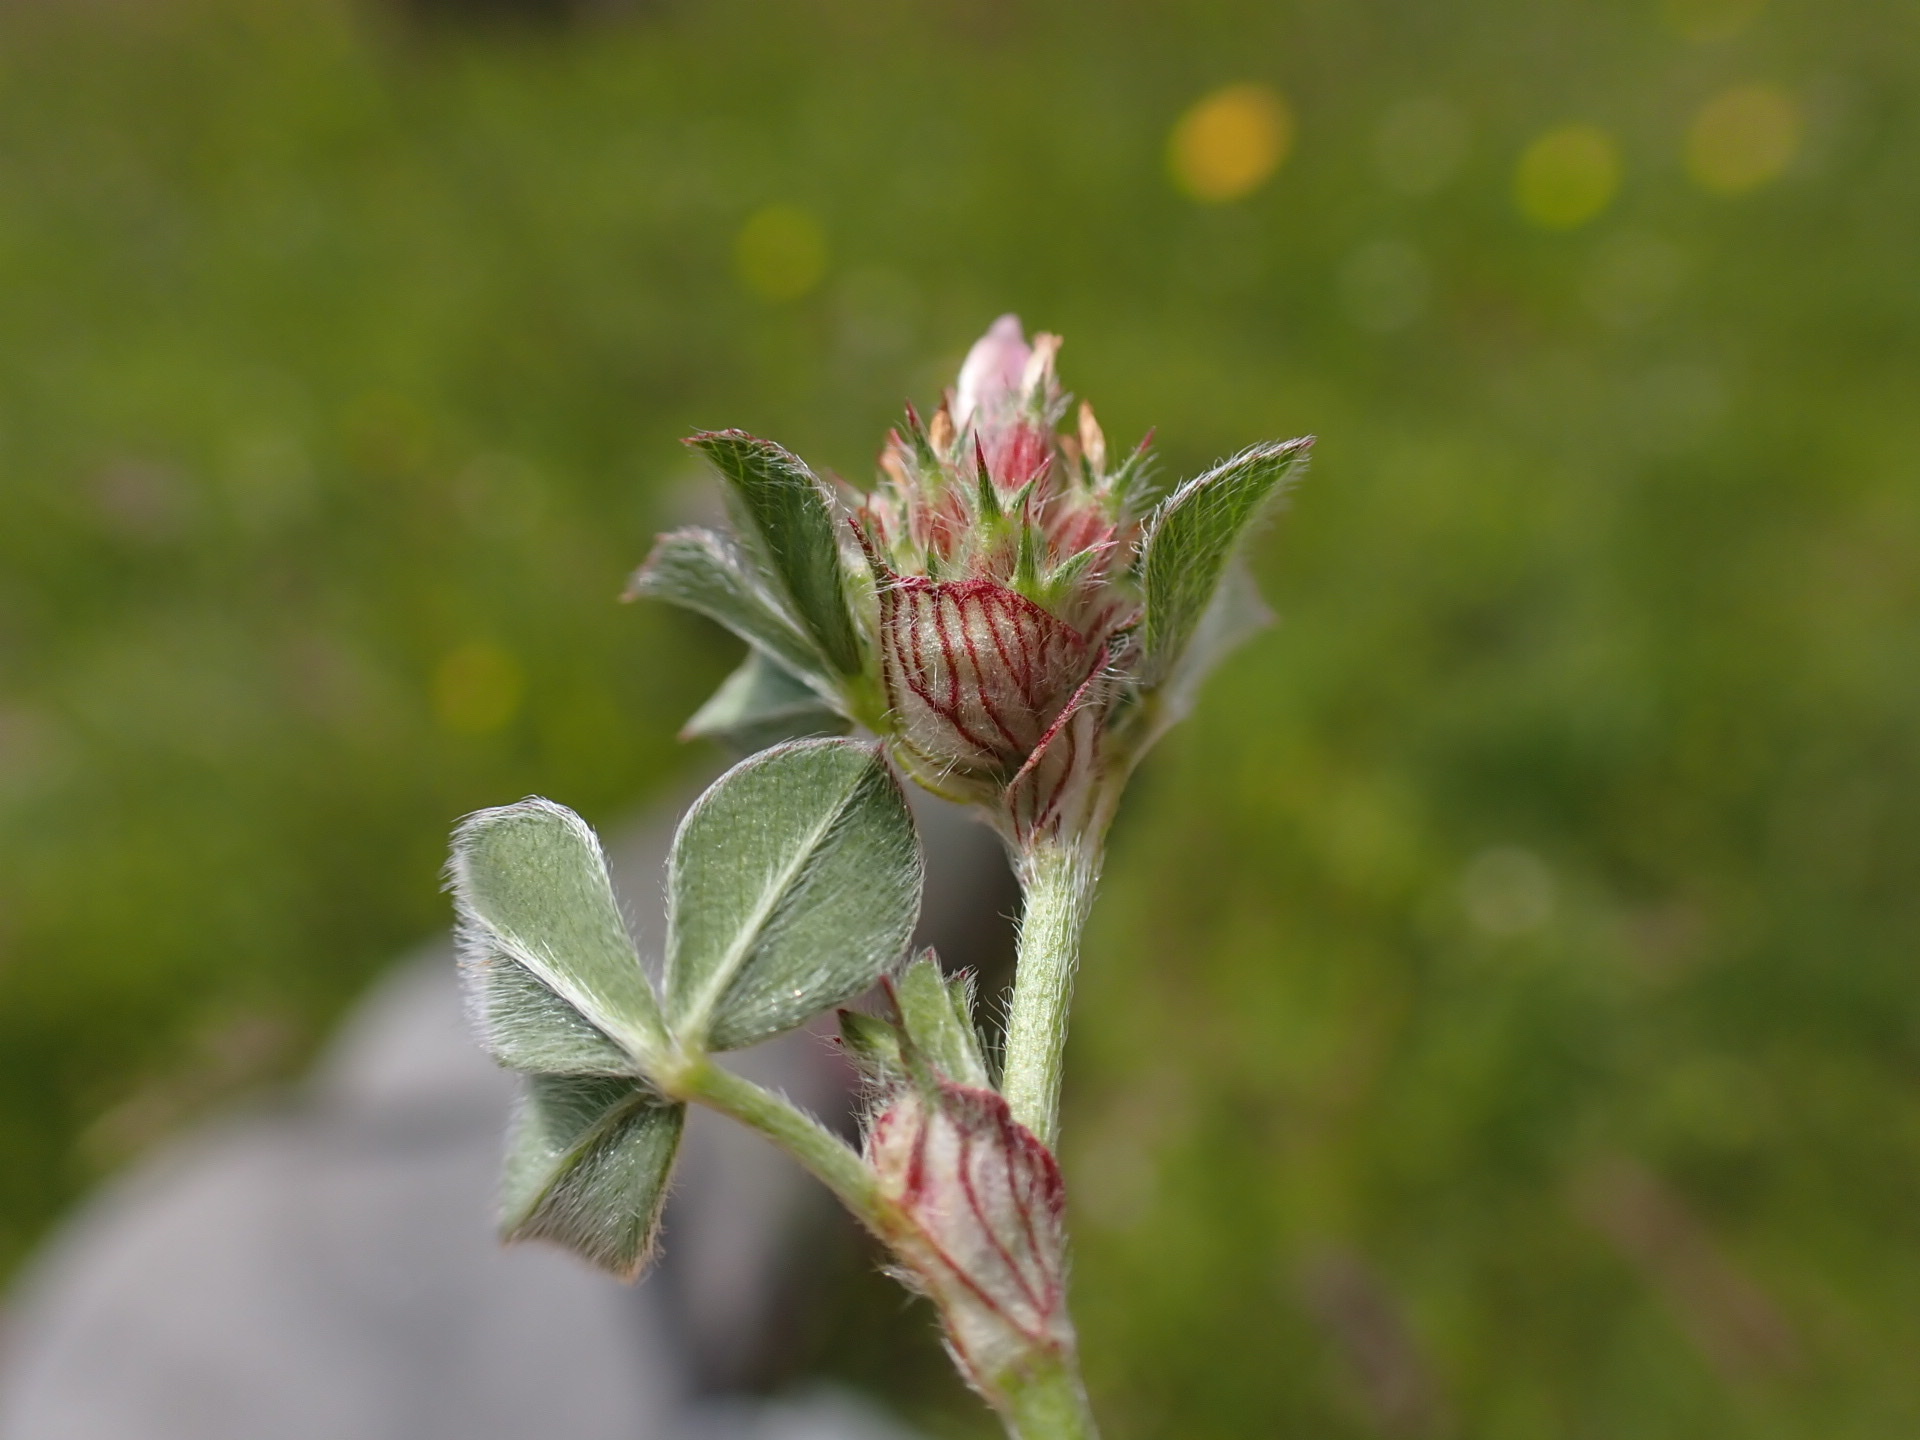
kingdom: Plantae
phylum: Tracheophyta
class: Magnoliopsida
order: Fabales
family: Fabaceae
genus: Trifolium
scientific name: Trifolium striatum
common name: Knotted clover
